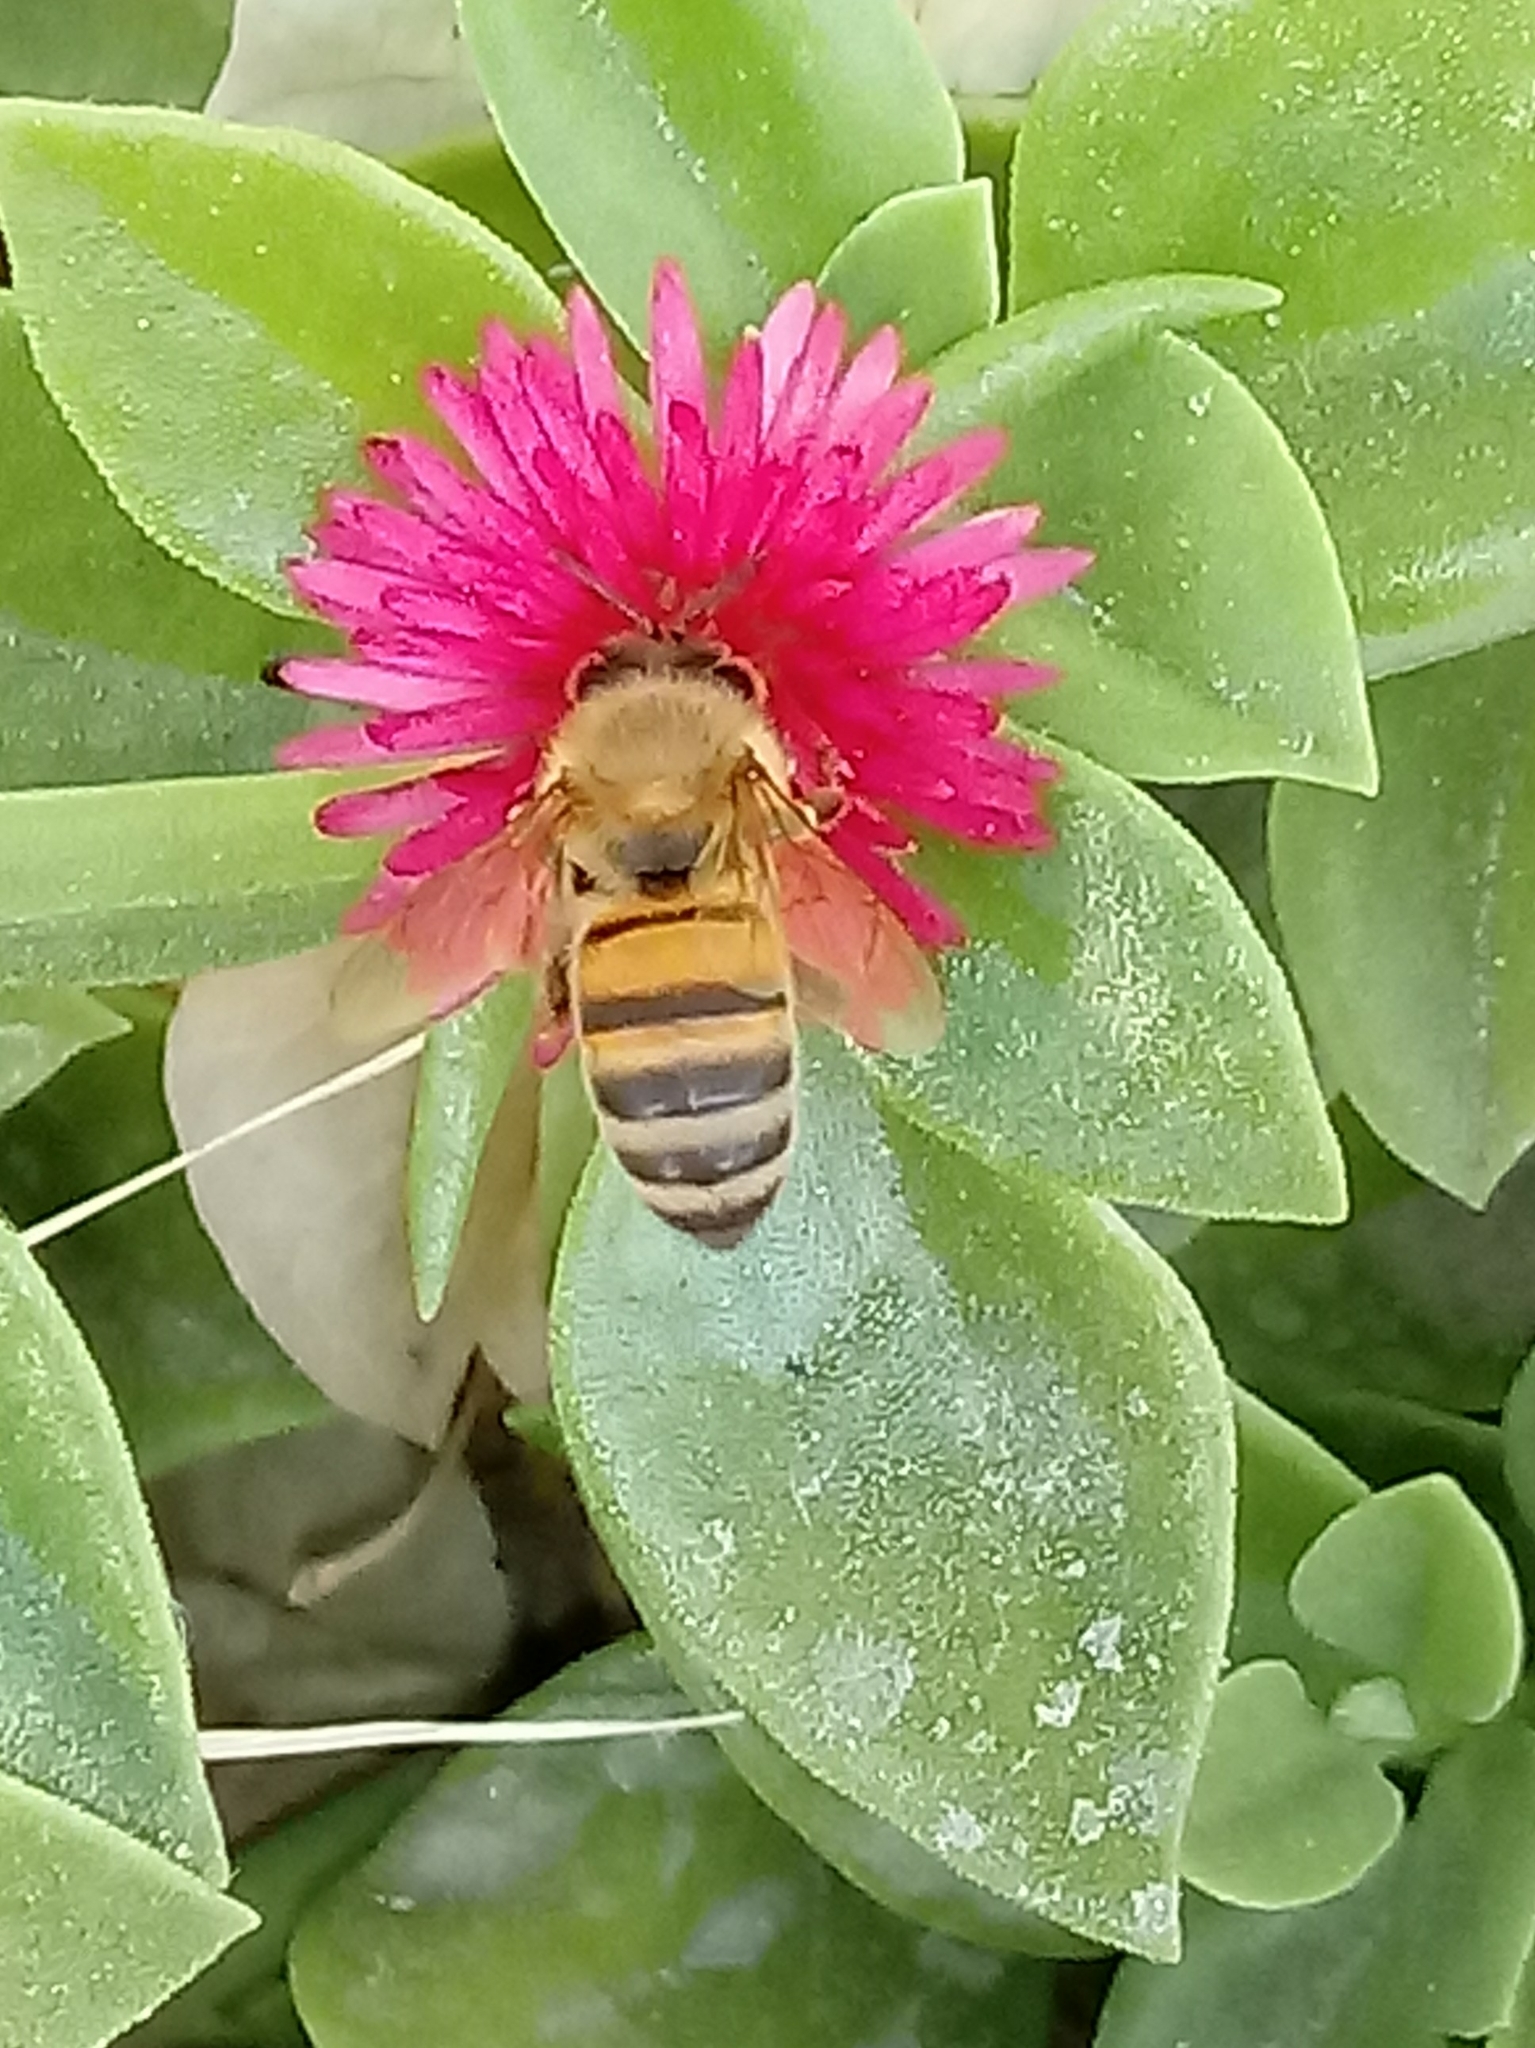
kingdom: Animalia
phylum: Arthropoda
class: Insecta
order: Hymenoptera
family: Apidae
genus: Apis
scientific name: Apis mellifera
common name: Honey bee
